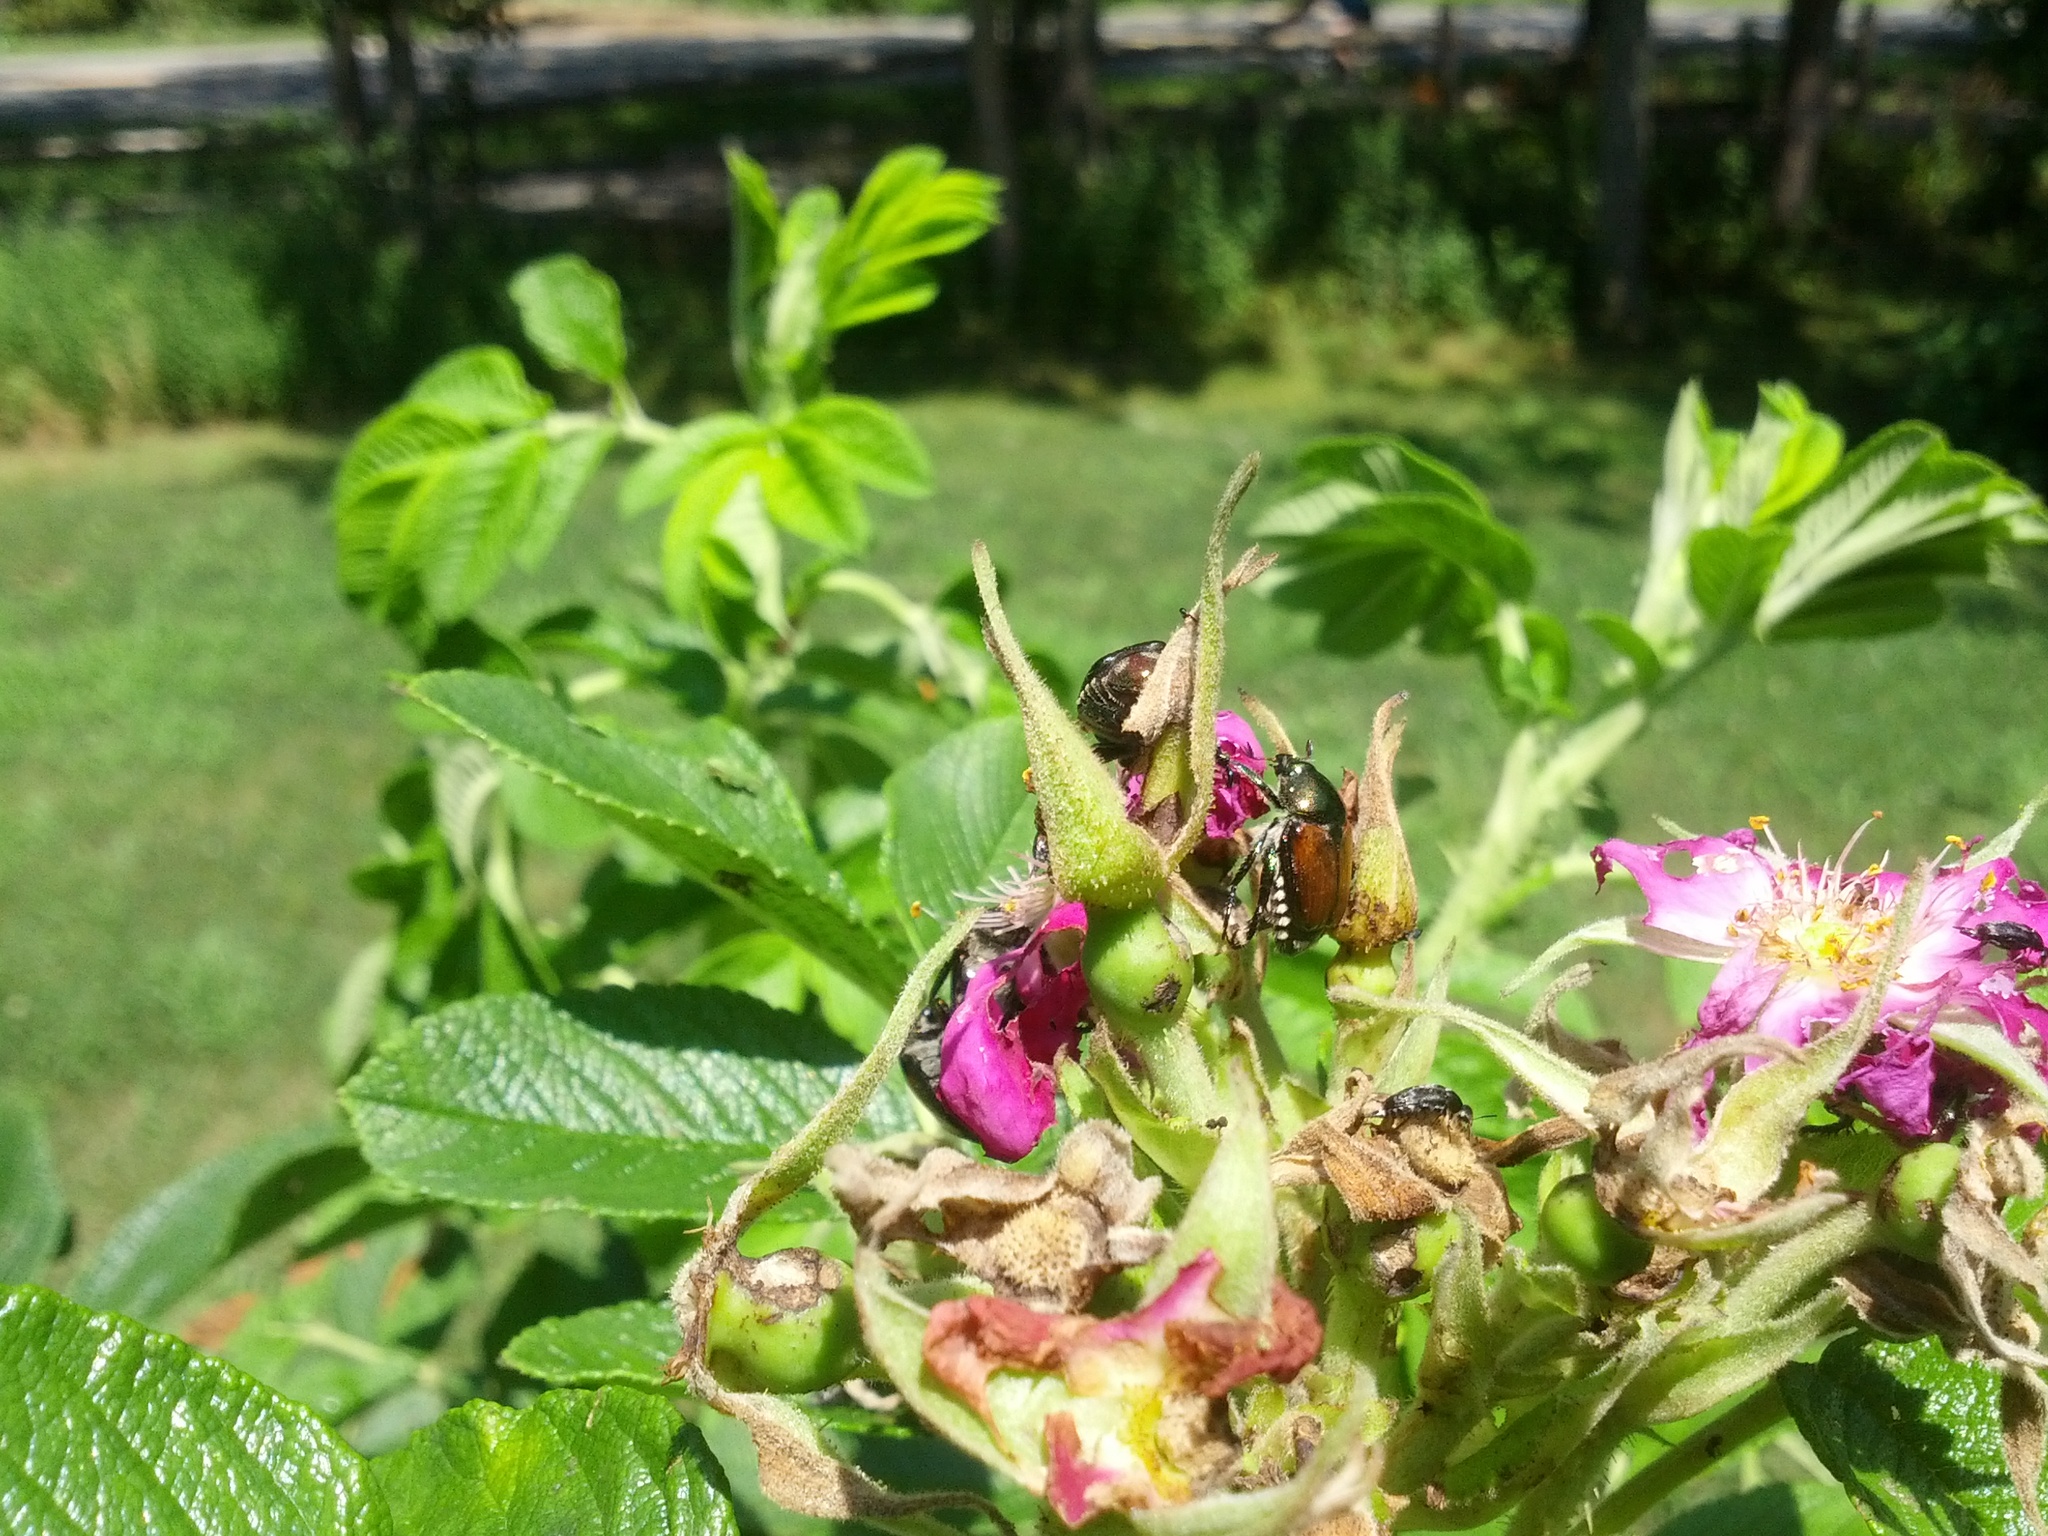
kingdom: Animalia
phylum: Arthropoda
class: Insecta
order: Coleoptera
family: Scarabaeidae
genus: Popillia
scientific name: Popillia japonica
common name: Japanese beetle
